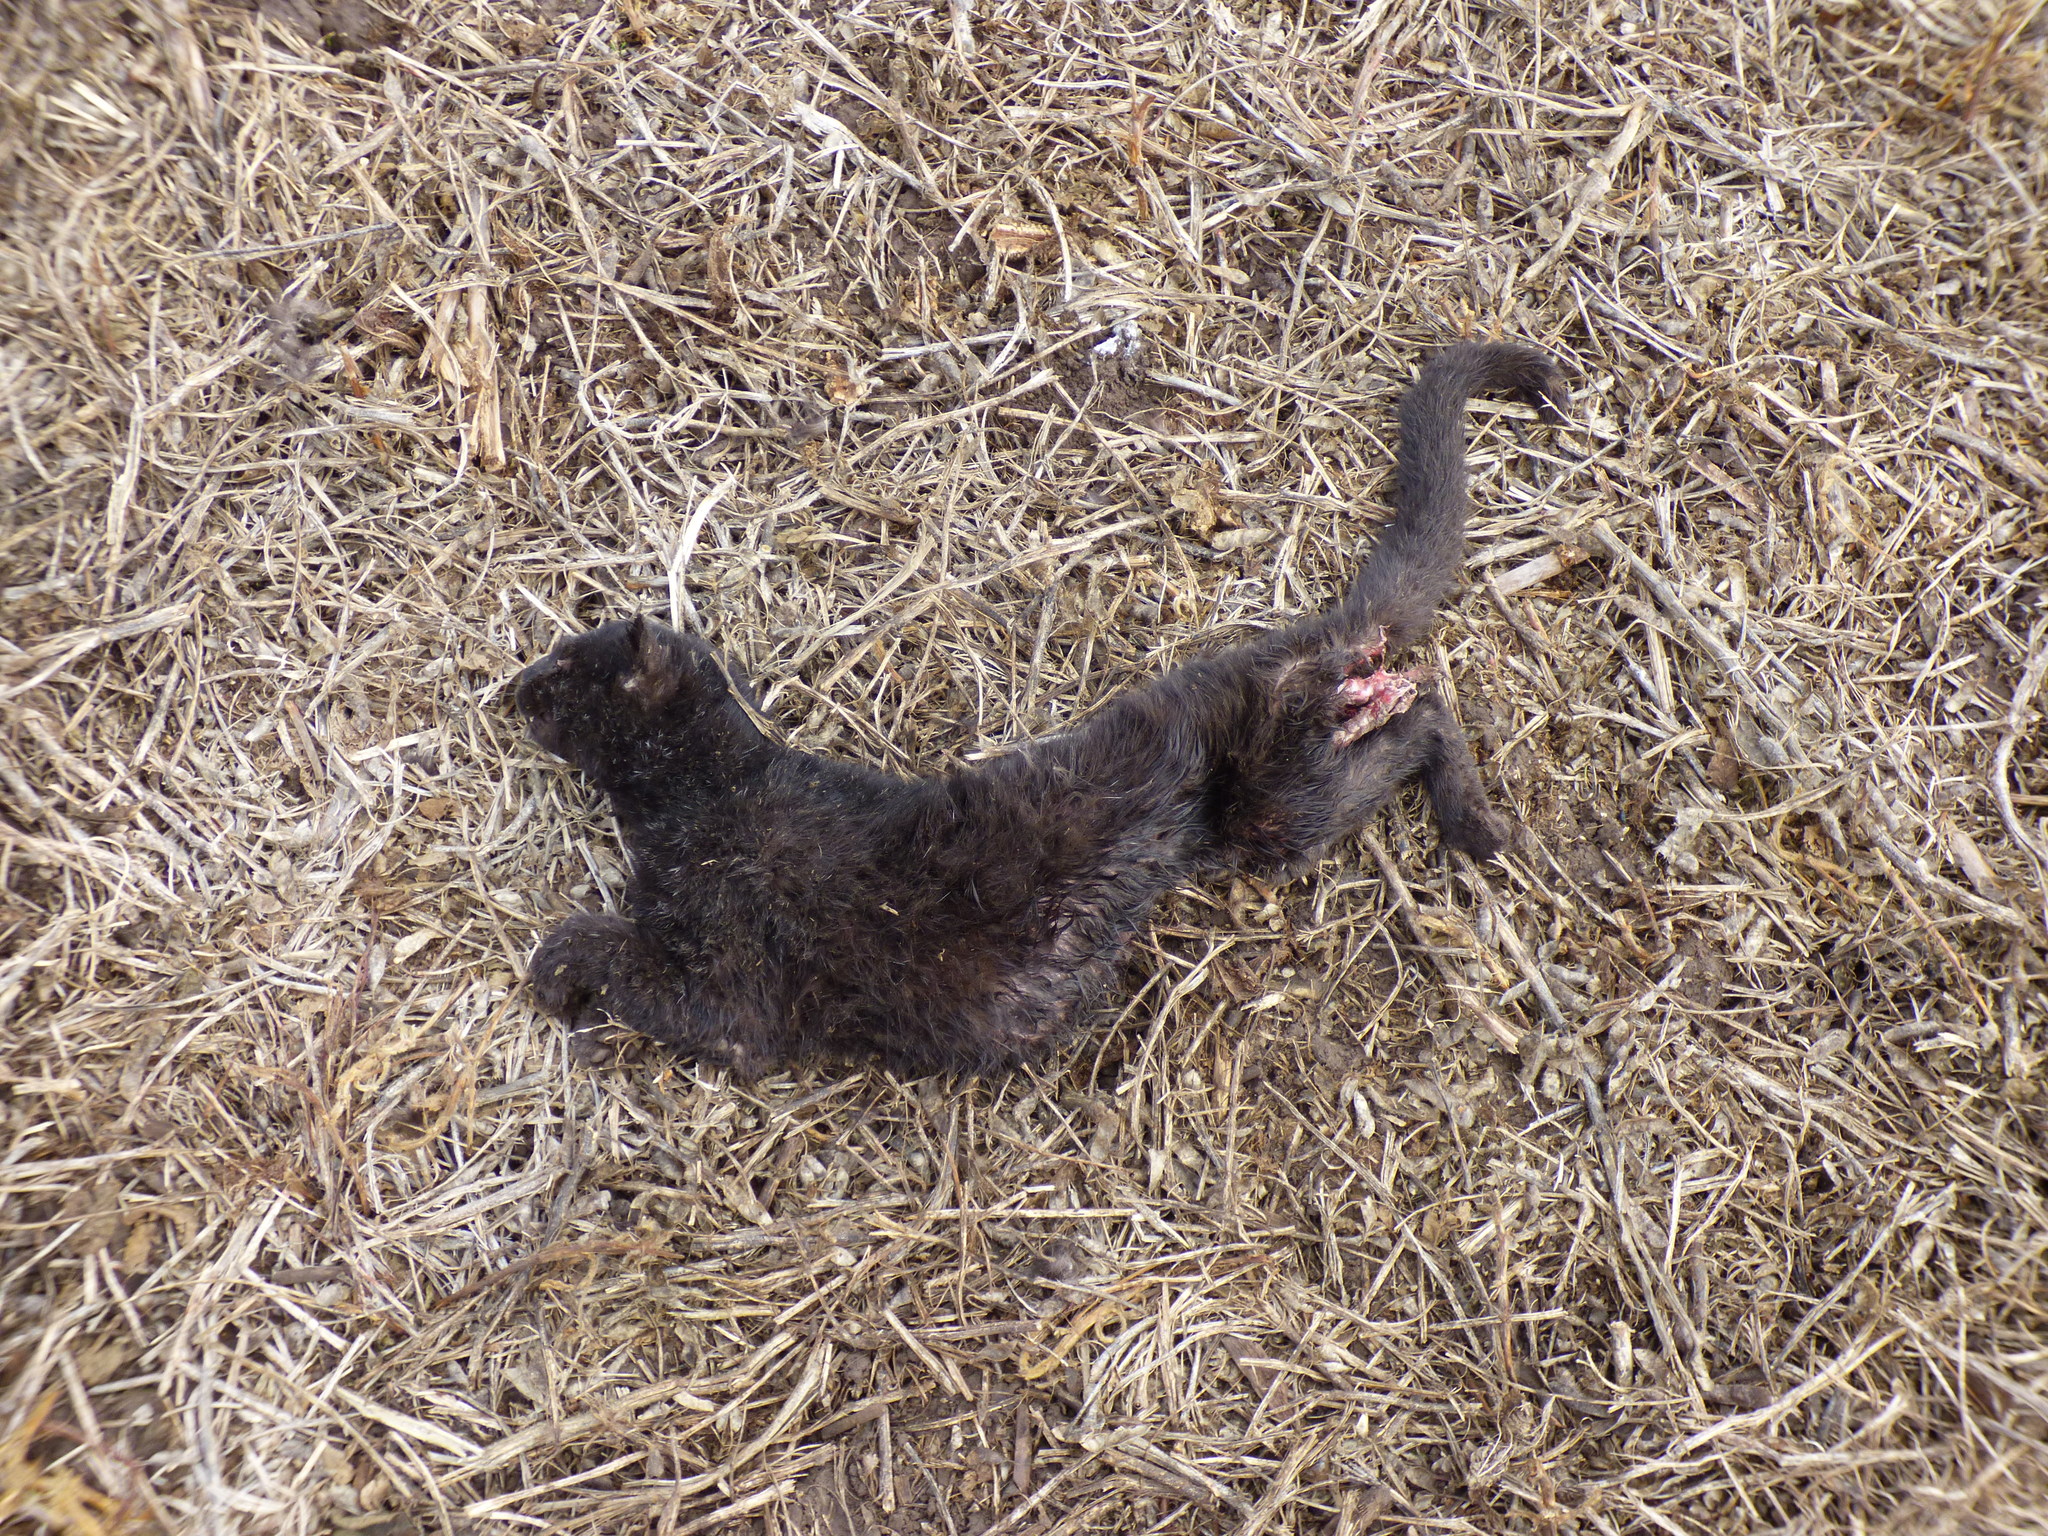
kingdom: Animalia
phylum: Chordata
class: Mammalia
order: Carnivora
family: Felidae
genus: Leopardus
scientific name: Leopardus geoffroyi
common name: Geoffroy's cat
